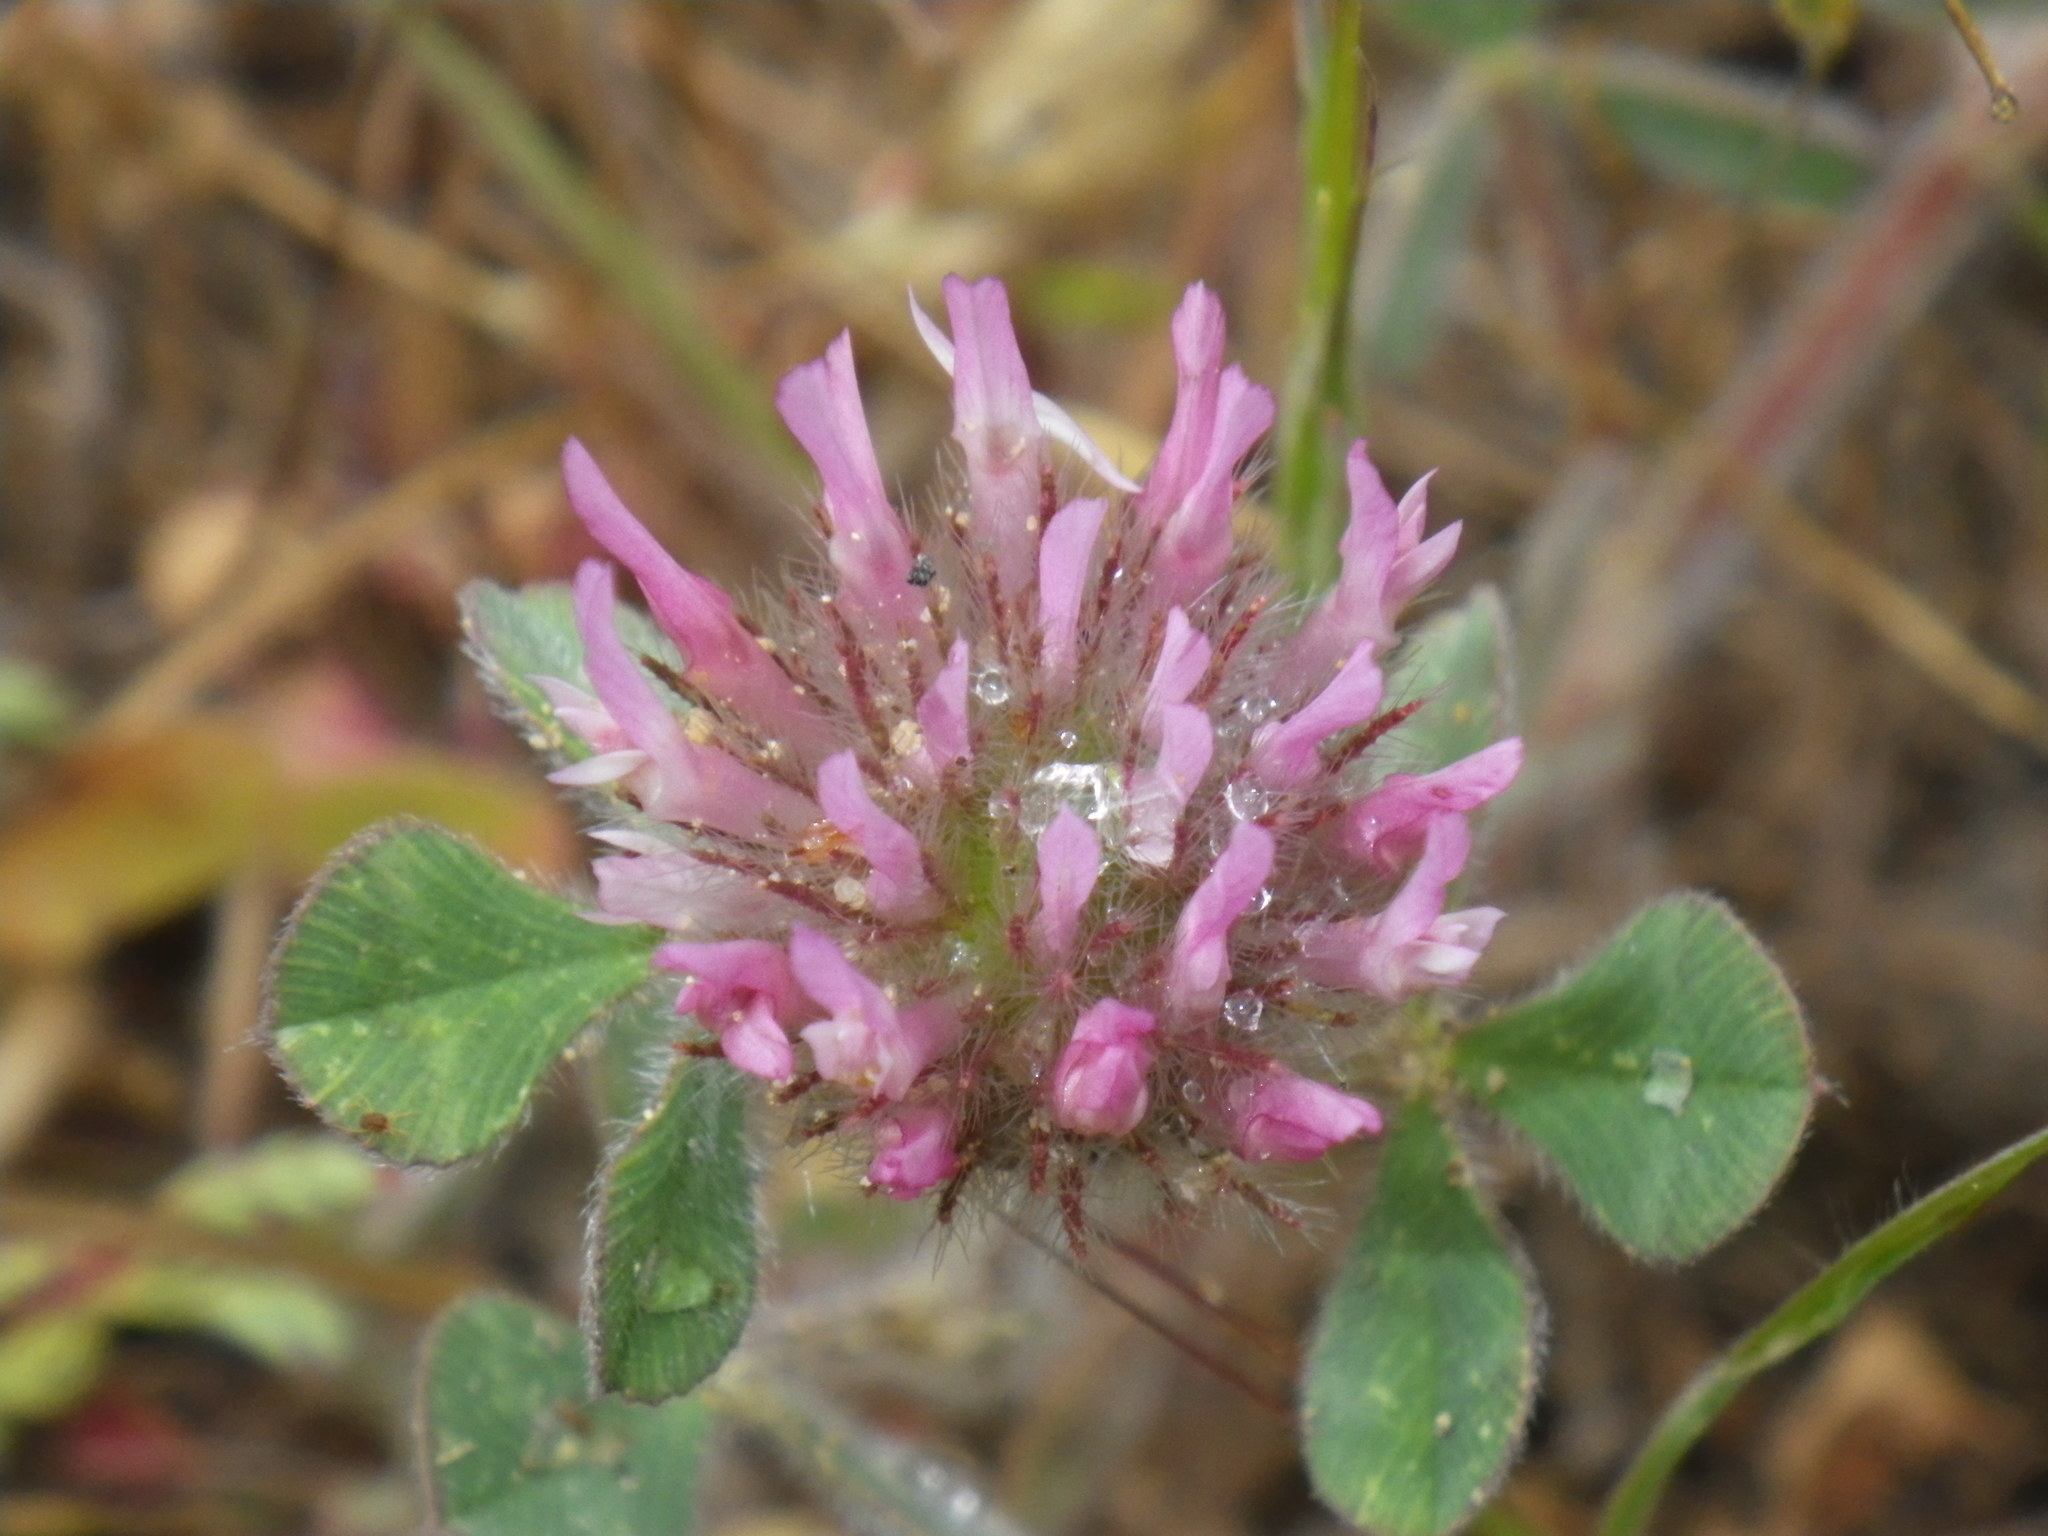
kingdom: Plantae
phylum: Tracheophyta
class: Magnoliopsida
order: Fabales
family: Fabaceae
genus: Trifolium
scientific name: Trifolium hirtum
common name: Rose clover
